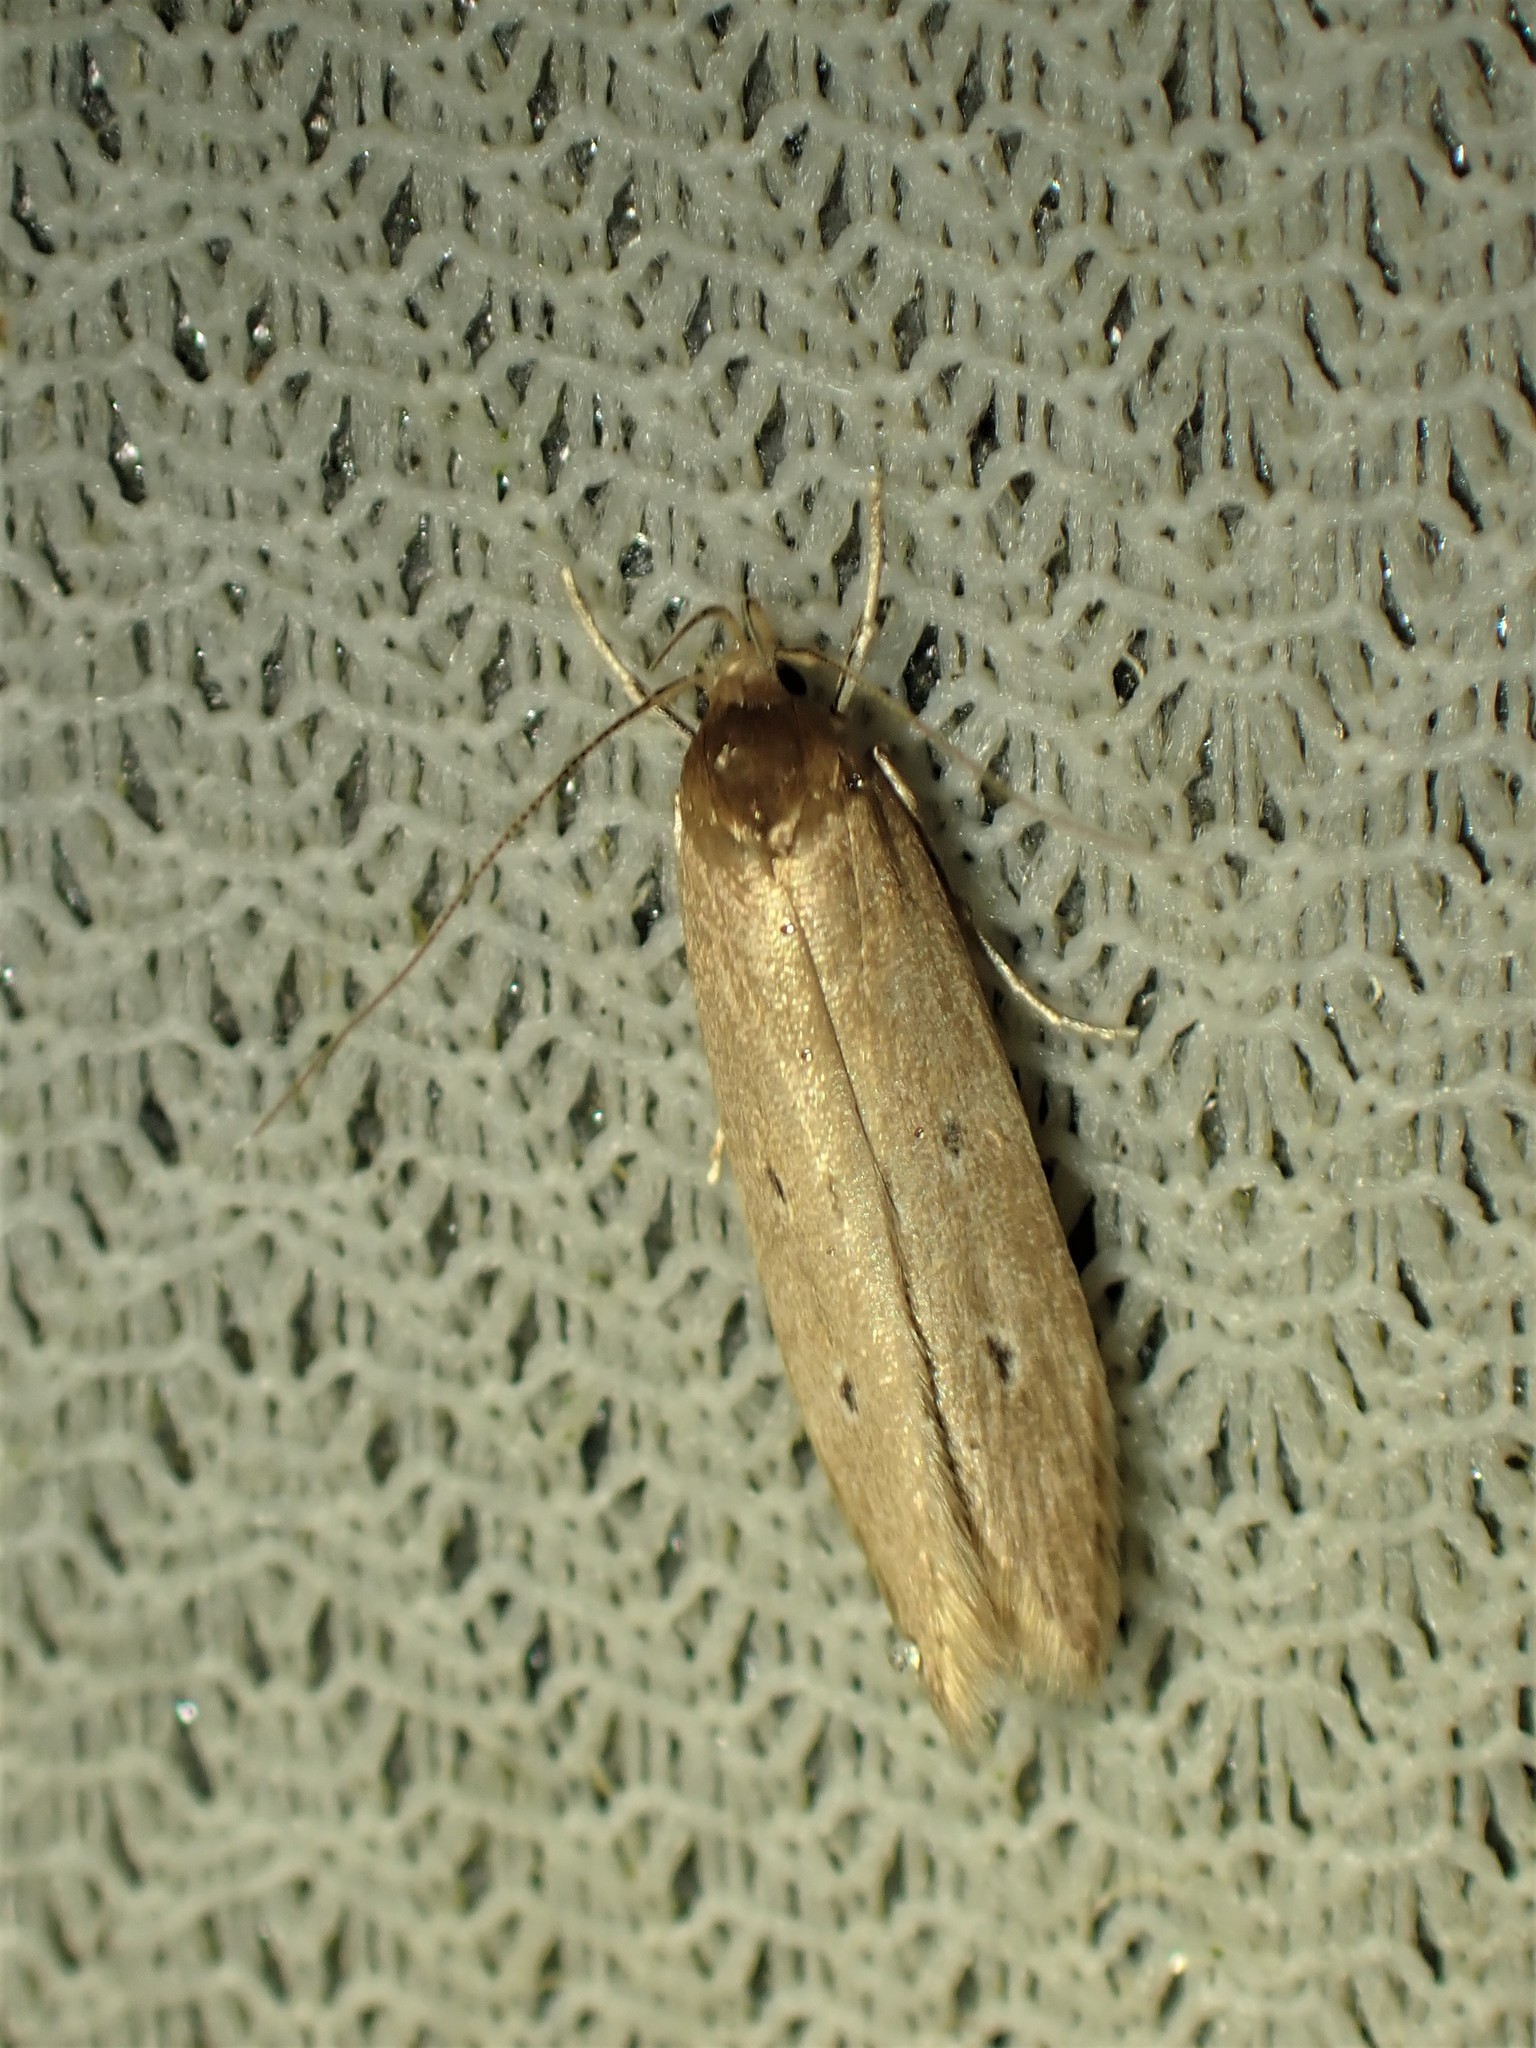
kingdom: Animalia
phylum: Arthropoda
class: Insecta
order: Lepidoptera
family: Cosmopterigidae
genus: Limnaecia
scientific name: Limnaecia phragmitella
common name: Bulrush cosmet
